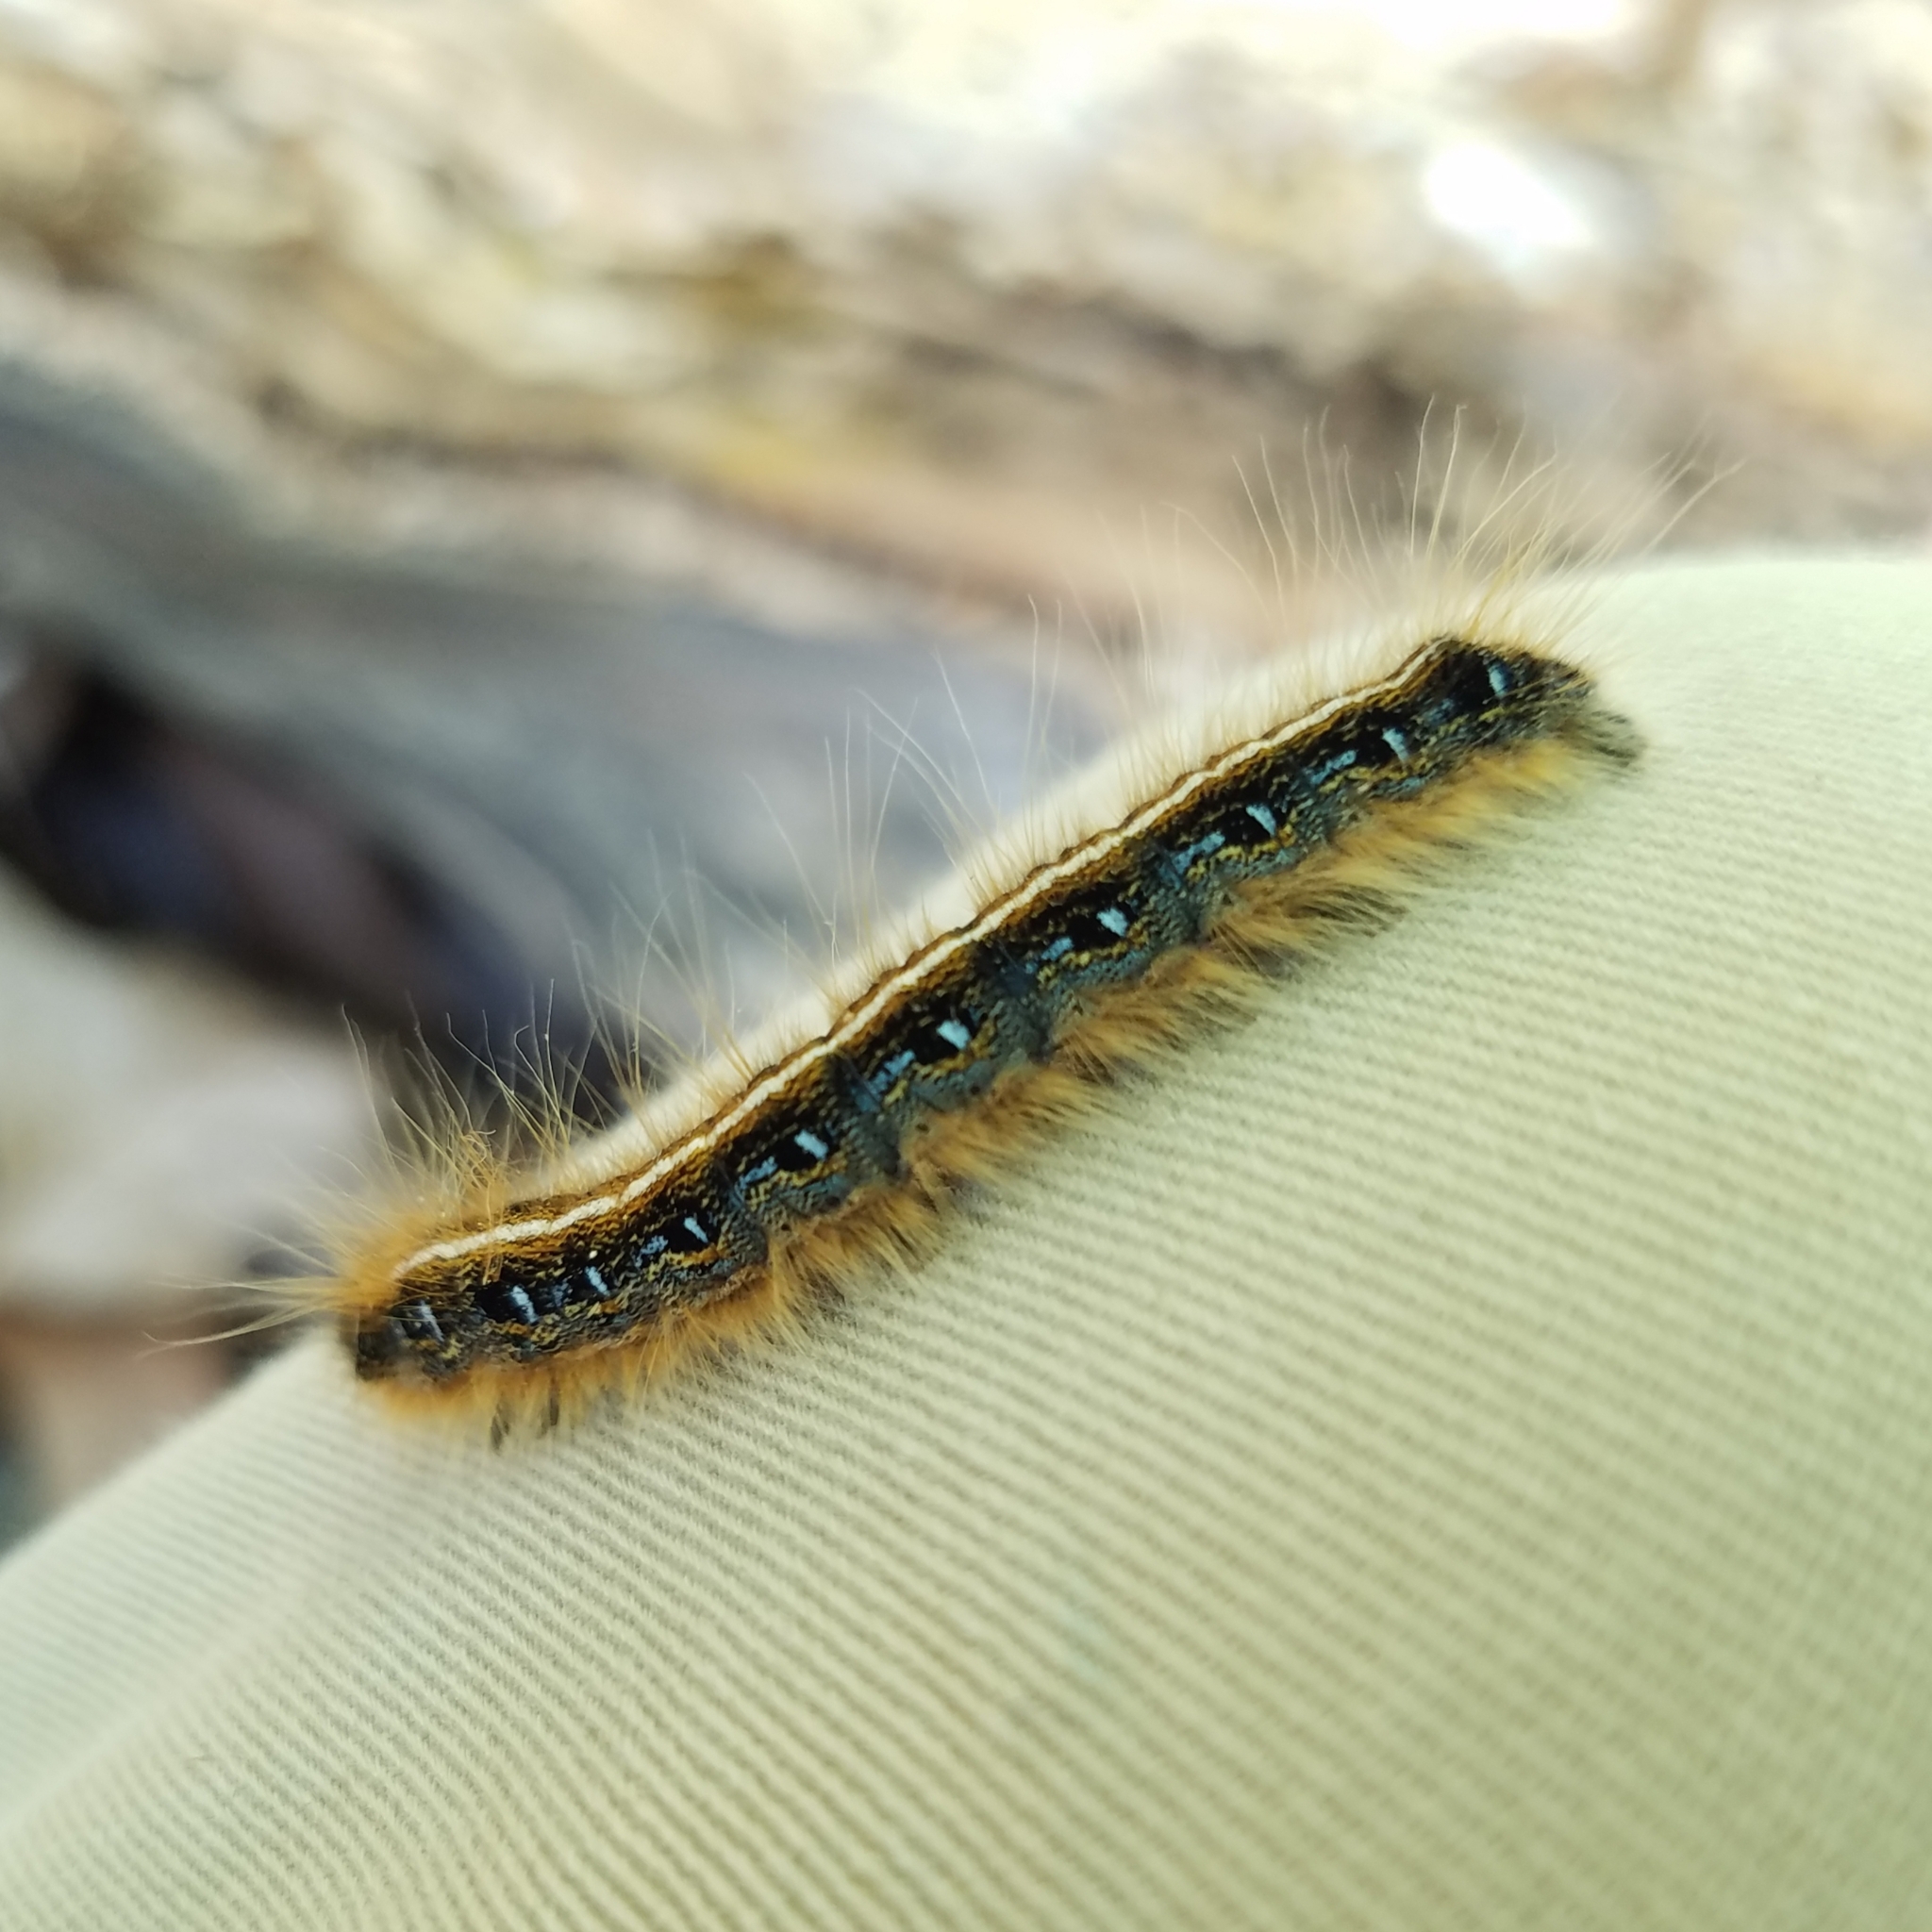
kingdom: Animalia
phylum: Arthropoda
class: Insecta
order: Lepidoptera
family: Lasiocampidae
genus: Malacosoma
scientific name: Malacosoma americana
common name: Eastern tent caterpillar moth
